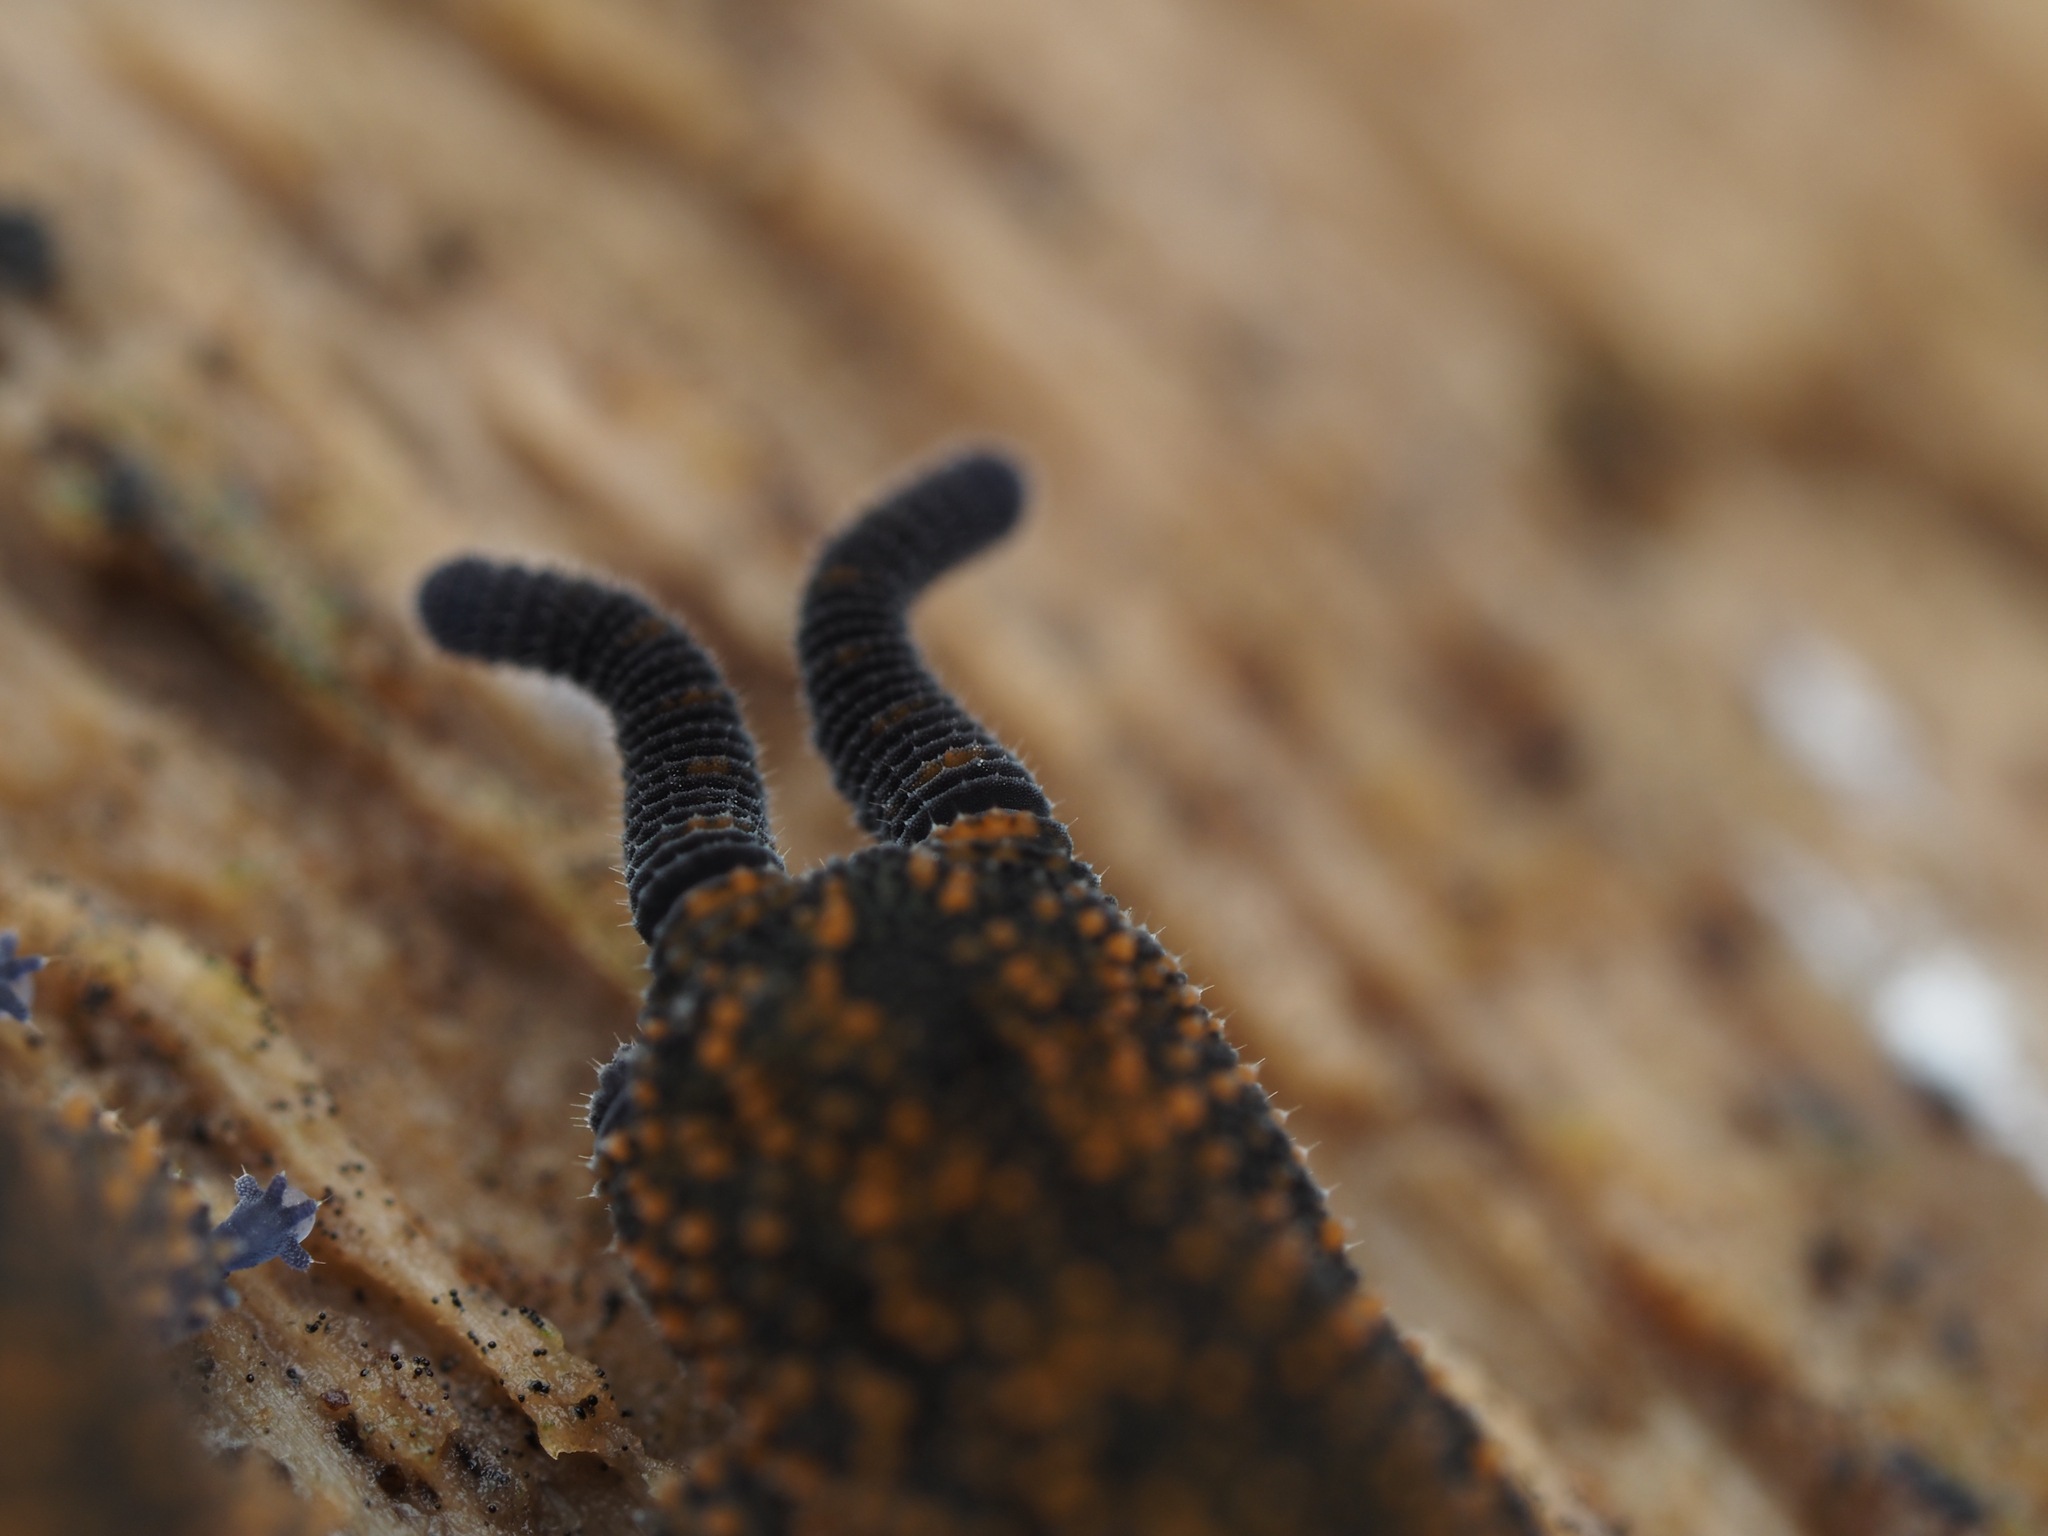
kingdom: Animalia
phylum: Onychophora
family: Peripatopsidae
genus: Peripatoides
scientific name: Peripatoides suteri
